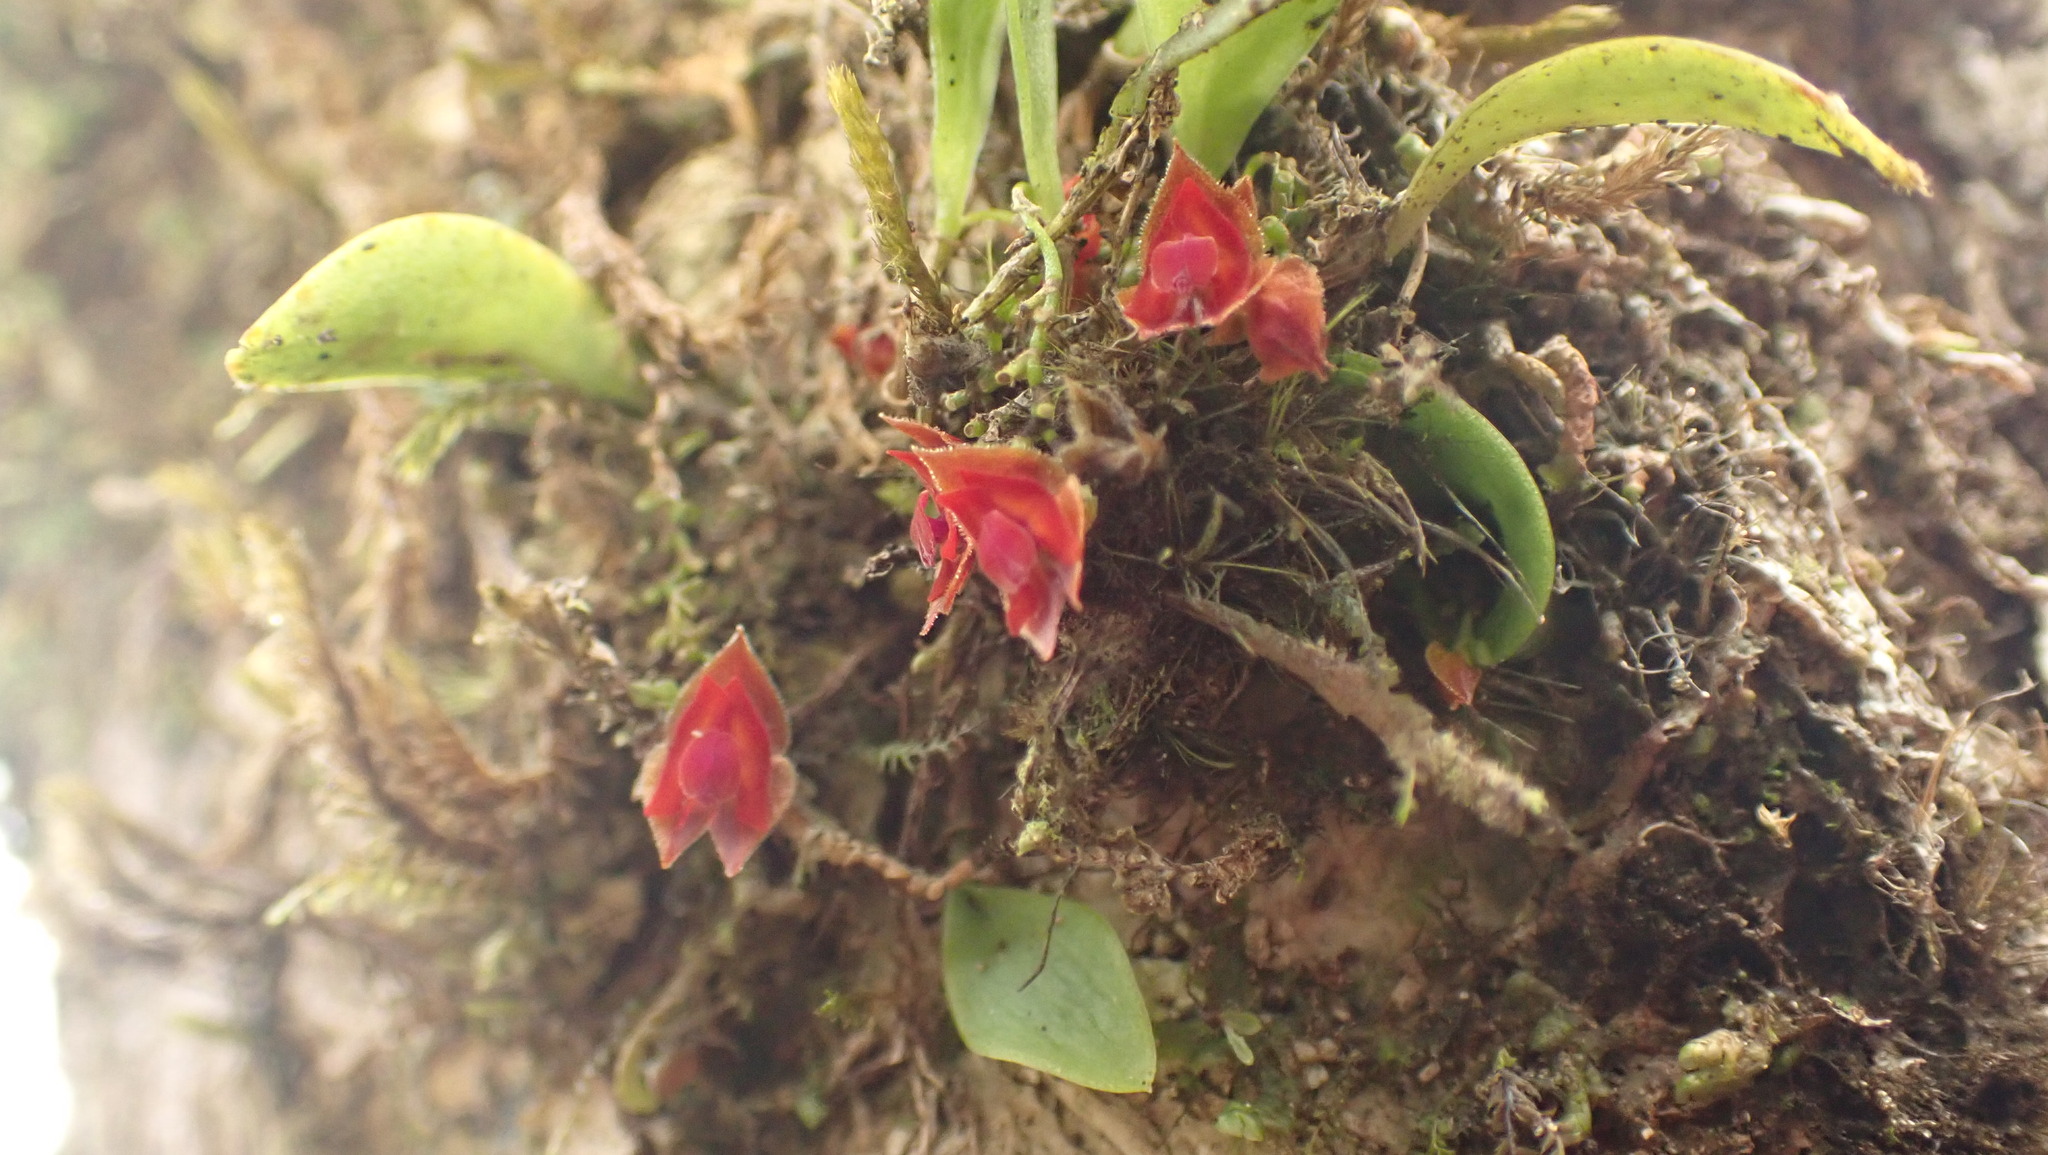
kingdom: Plantae
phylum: Tracheophyta
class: Liliopsida
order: Asparagales
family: Orchidaceae
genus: Lepanthes
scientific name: Lepanthes caritensis
